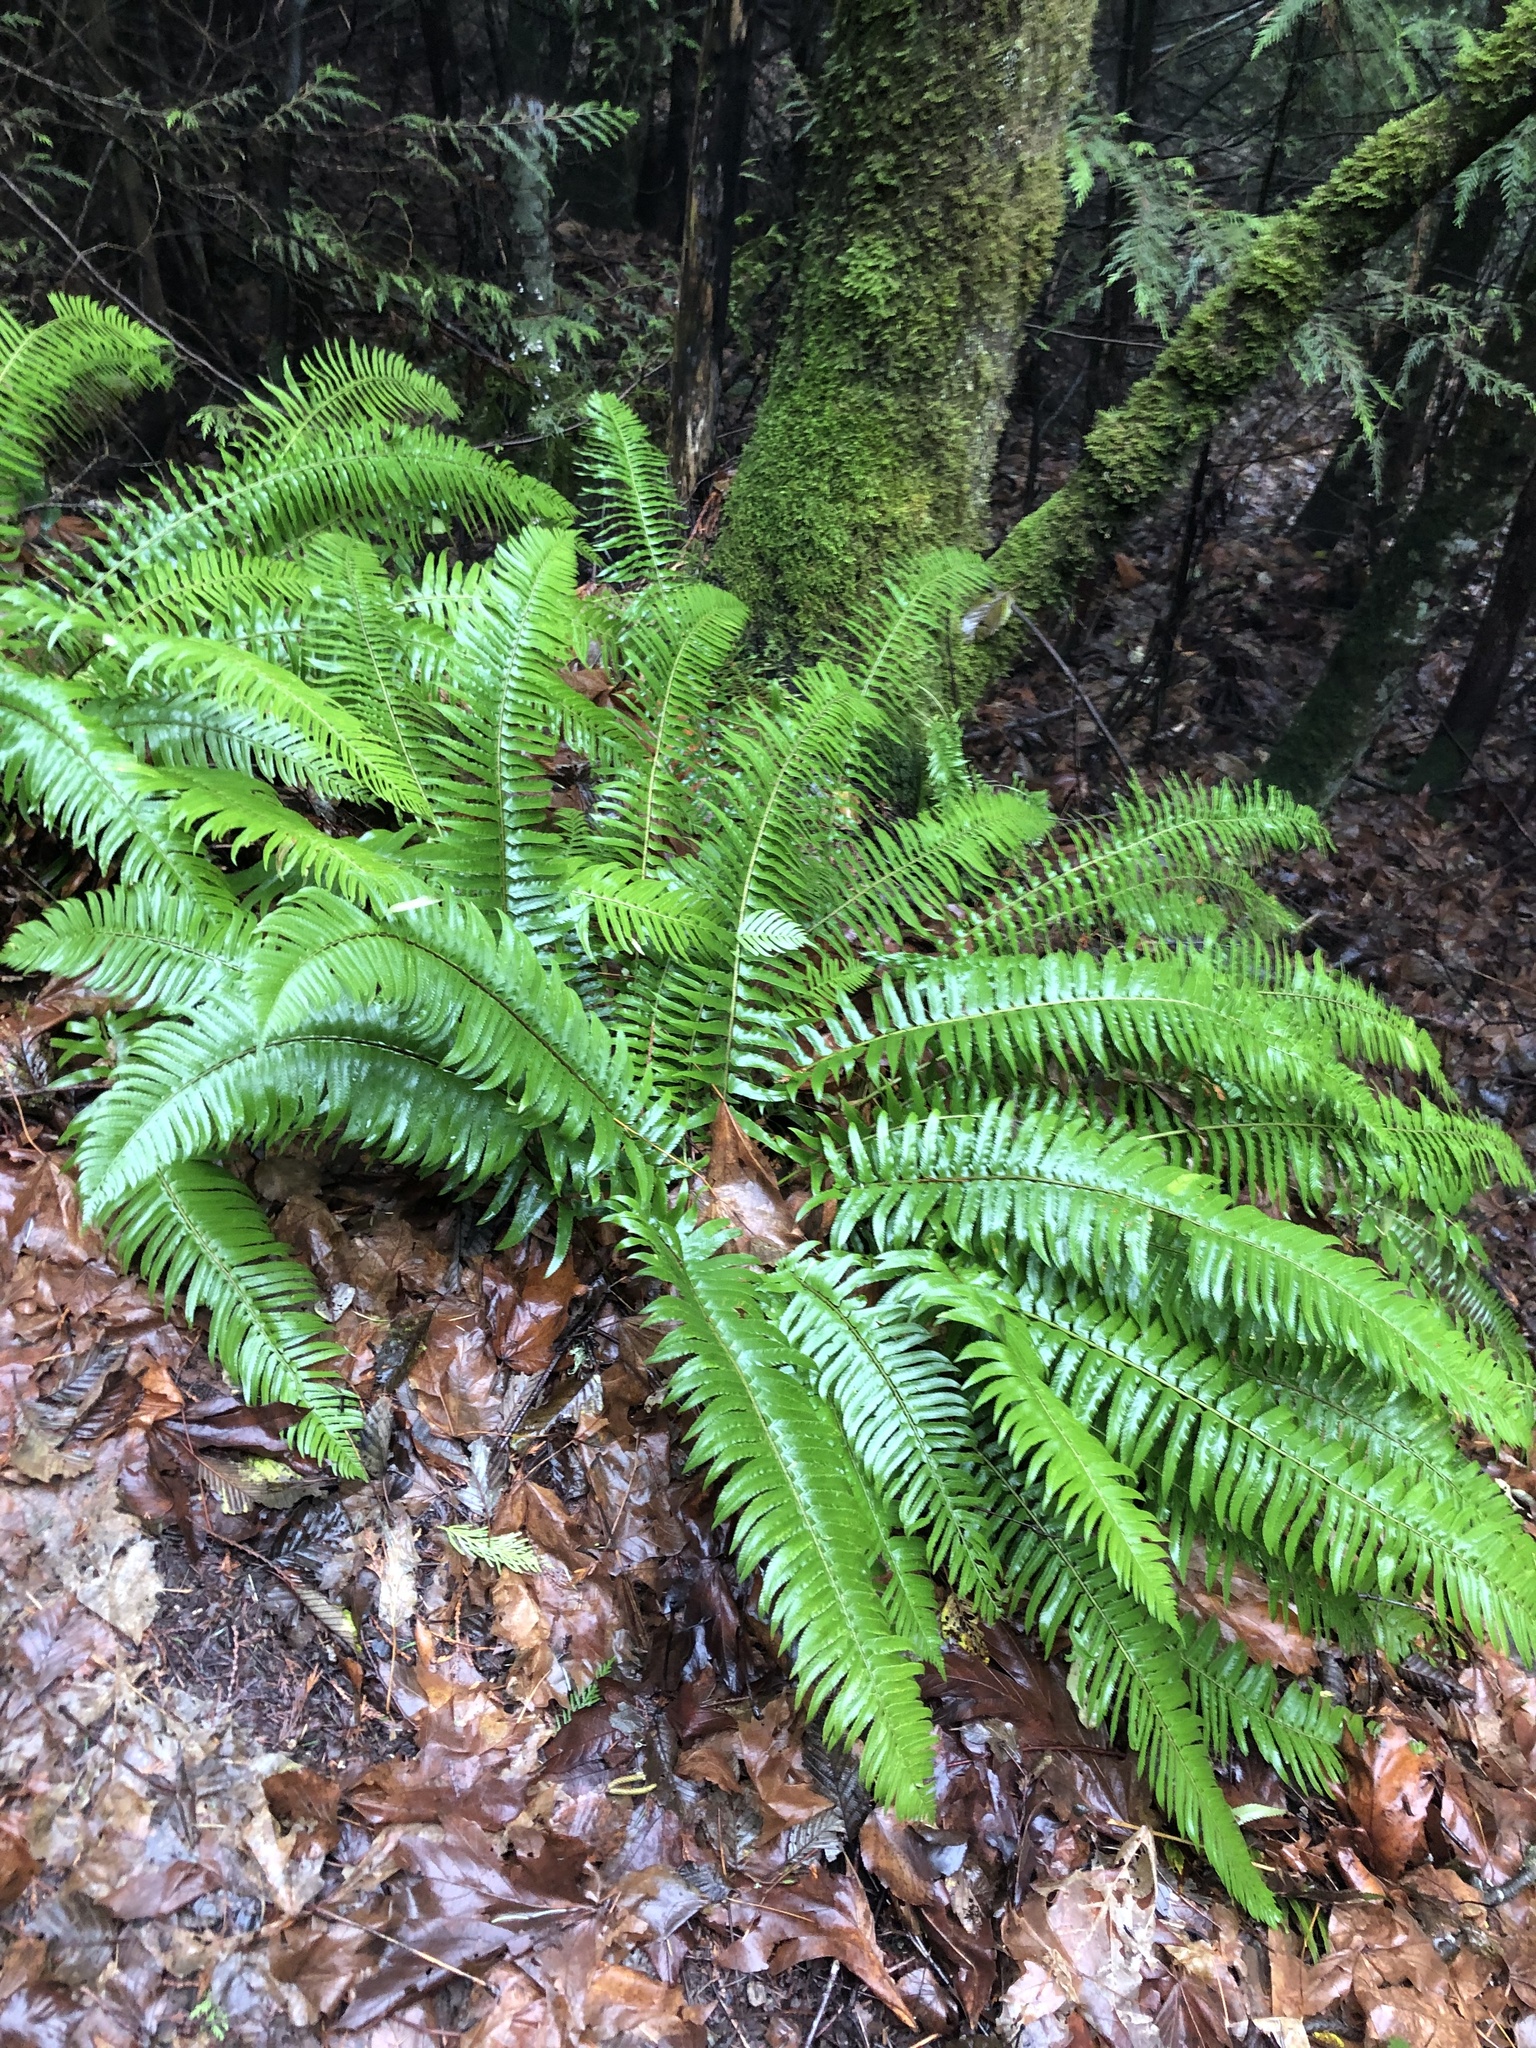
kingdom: Plantae
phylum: Tracheophyta
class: Polypodiopsida
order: Polypodiales
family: Dryopteridaceae
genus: Polystichum
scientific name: Polystichum munitum
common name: Western sword-fern
